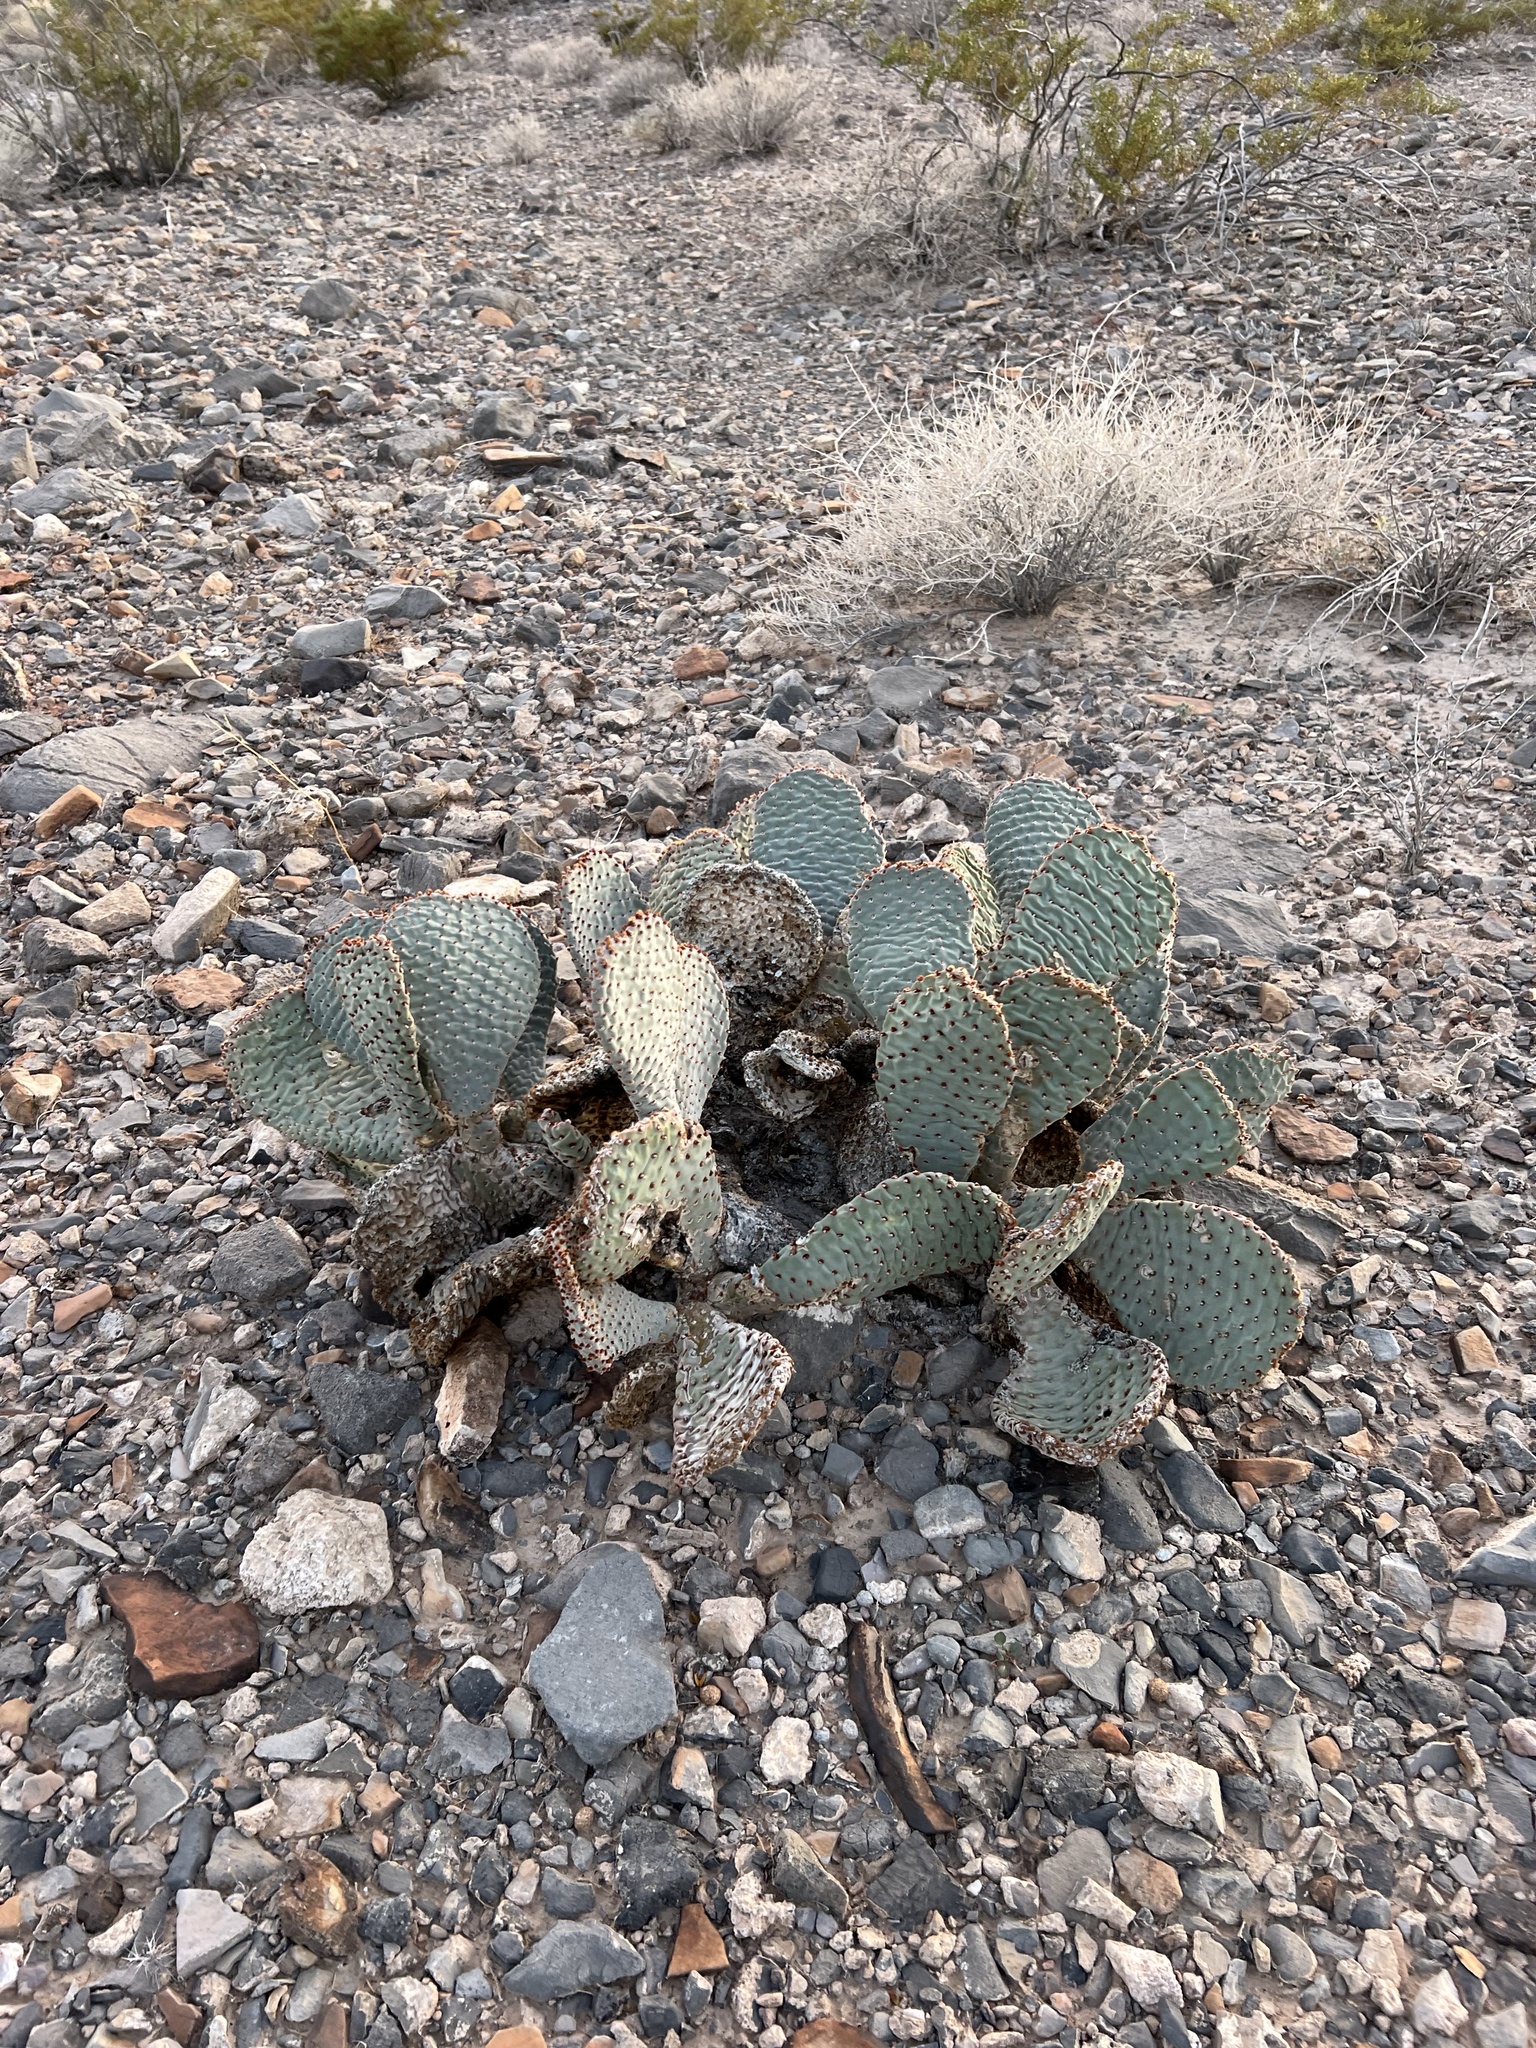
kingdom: Plantae
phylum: Tracheophyta
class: Magnoliopsida
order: Caryophyllales
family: Cactaceae
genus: Opuntia
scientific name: Opuntia basilaris
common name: Beavertail prickly-pear
